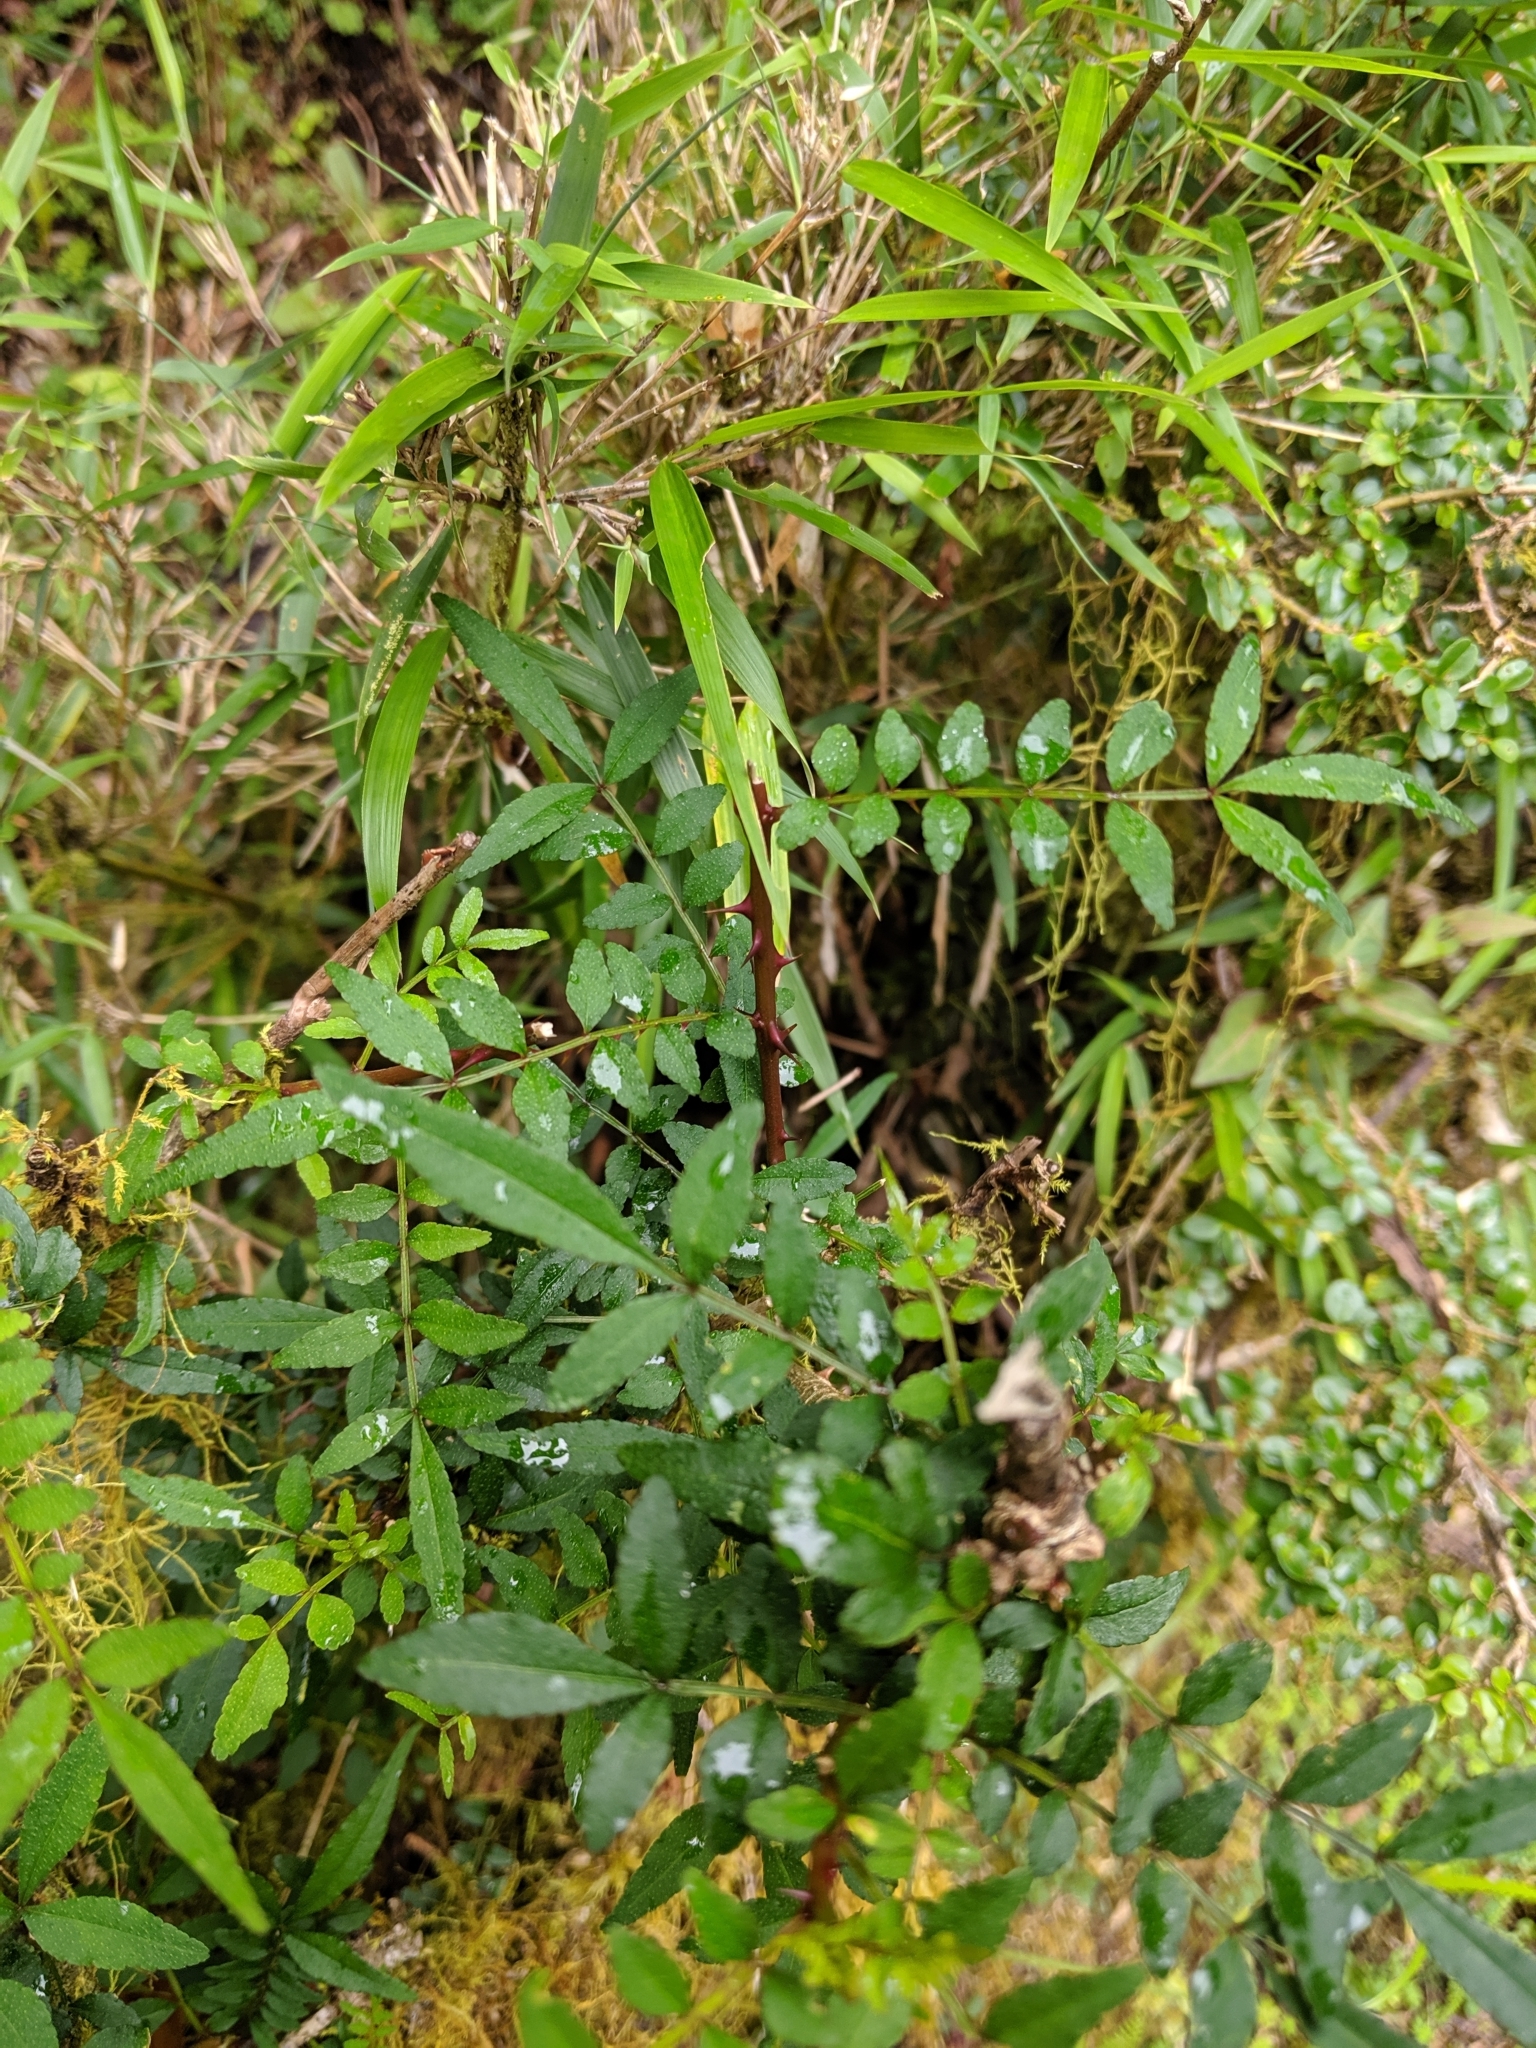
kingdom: Plantae
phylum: Tracheophyta
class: Magnoliopsida
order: Sapindales
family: Rutaceae
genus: Zanthoxylum
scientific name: Zanthoxylum schinifolium
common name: Sichuan-pepper
